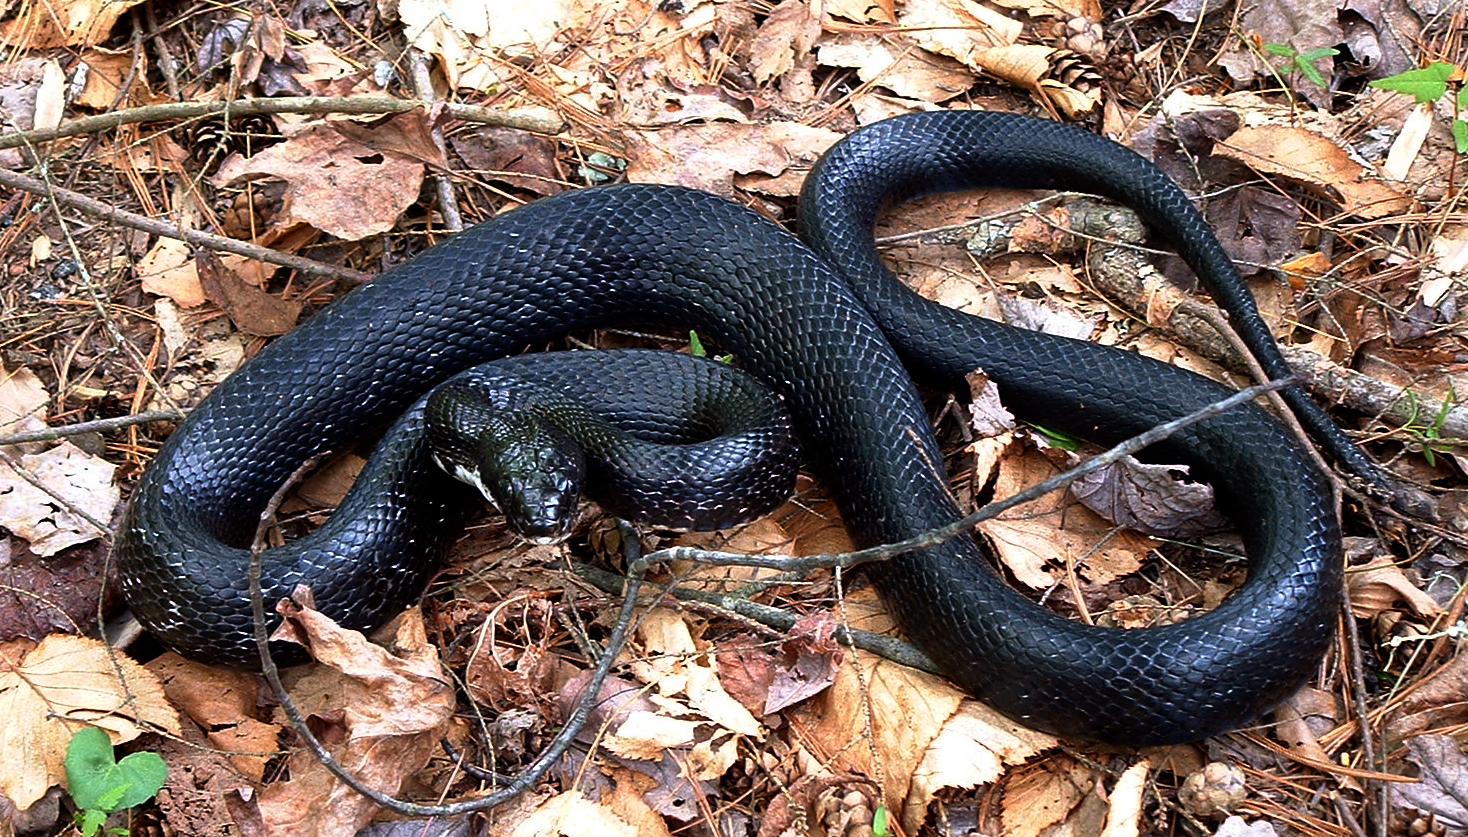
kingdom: Animalia
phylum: Chordata
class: Squamata
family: Colubridae
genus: Pantherophis
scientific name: Pantherophis alleghaniensis
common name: Eastern rat snake
